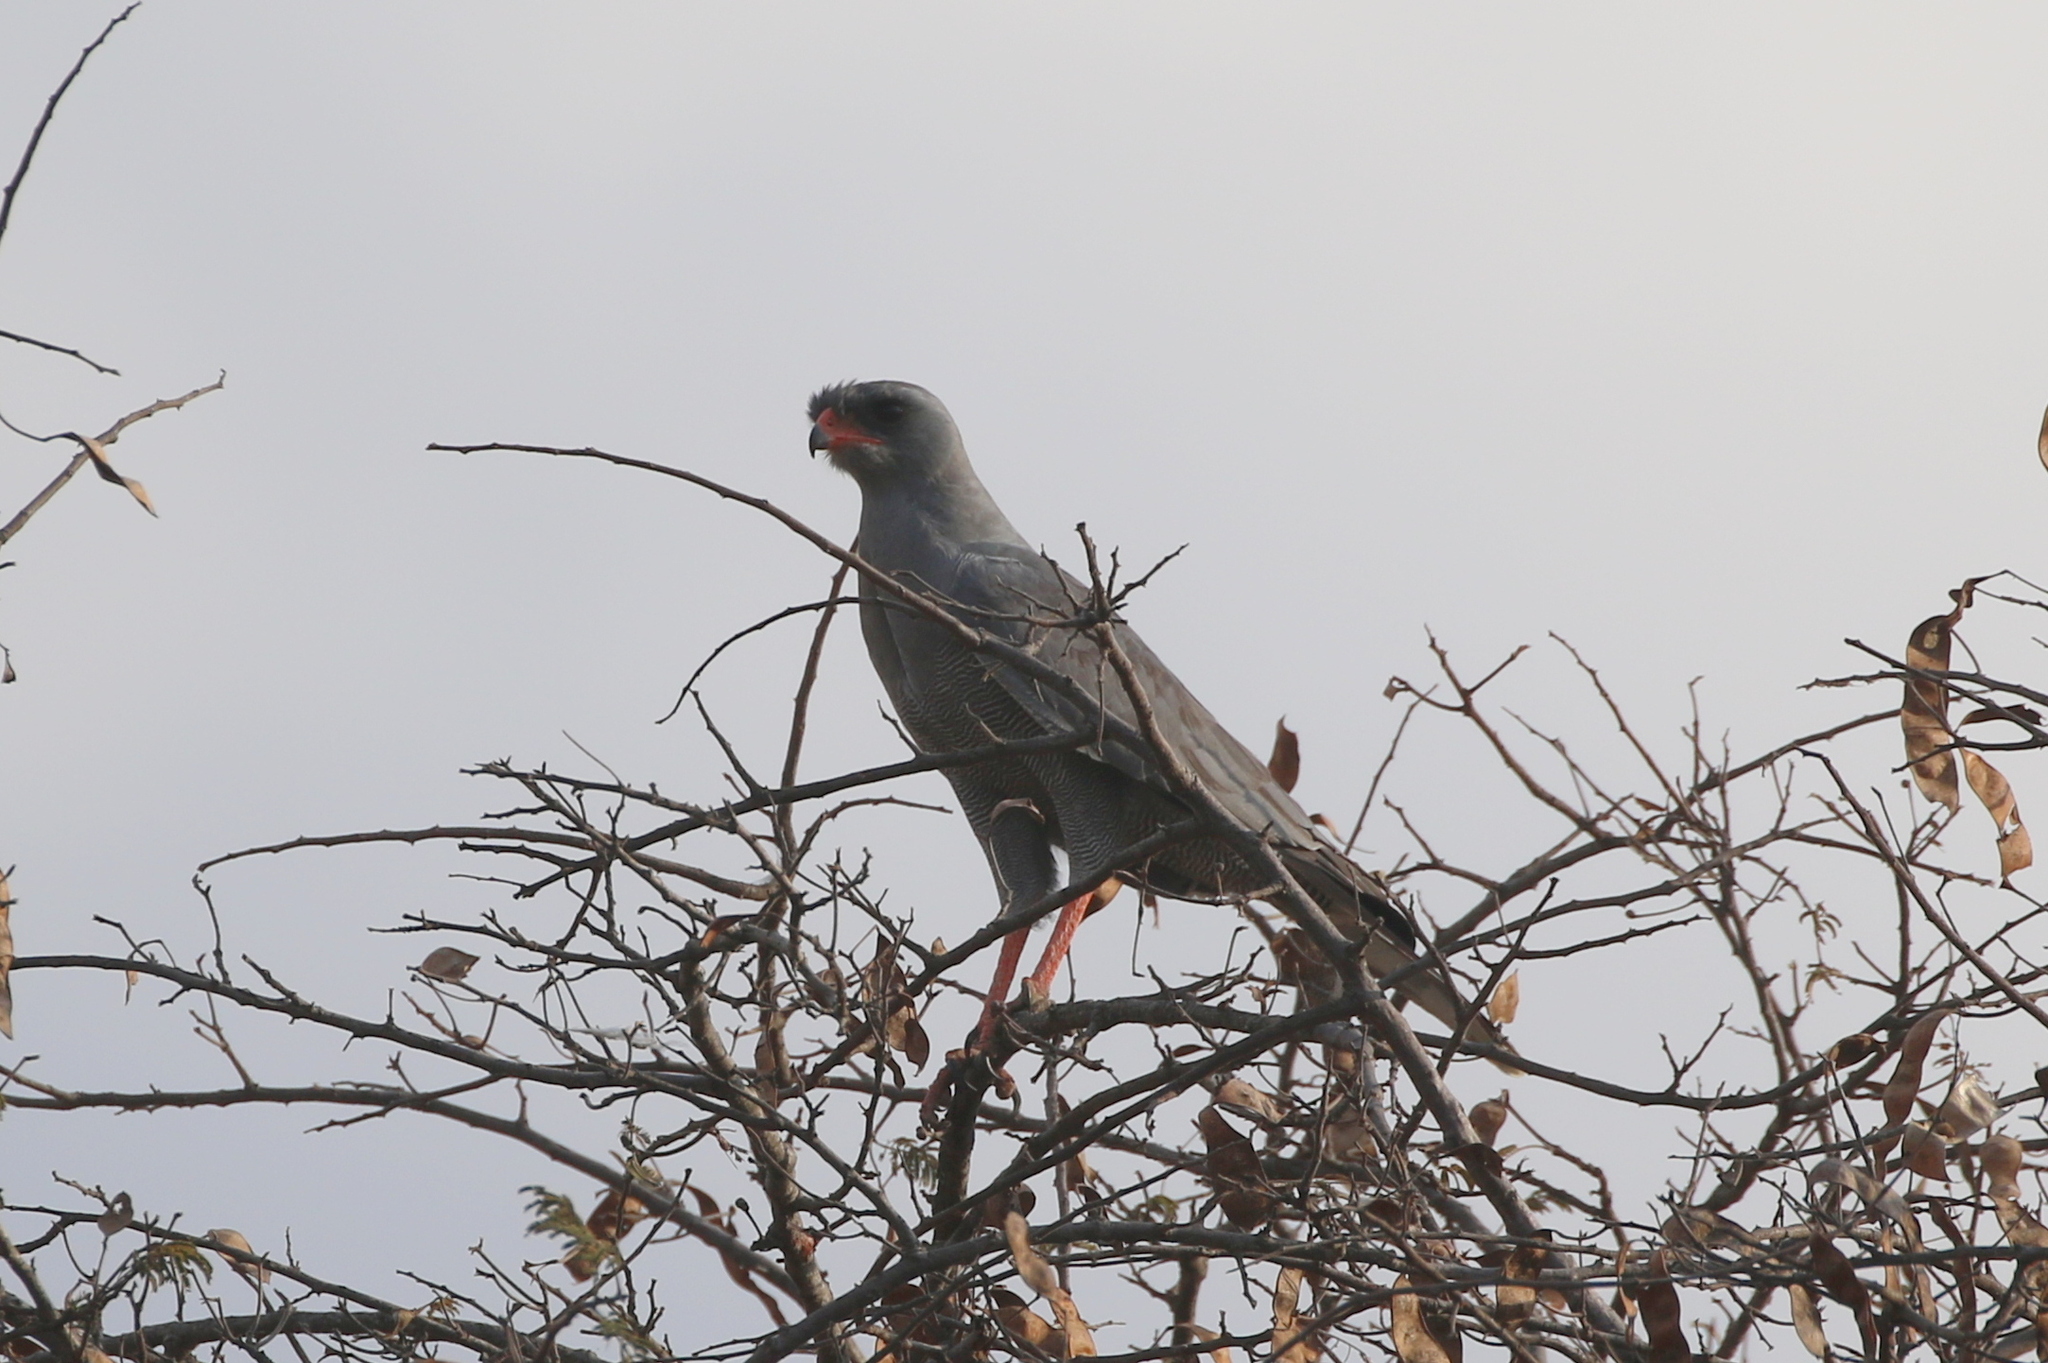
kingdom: Animalia
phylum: Chordata
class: Aves
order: Accipitriformes
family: Accipitridae
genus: Melierax
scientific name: Melierax metabates
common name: Dark chanting-goshawk
